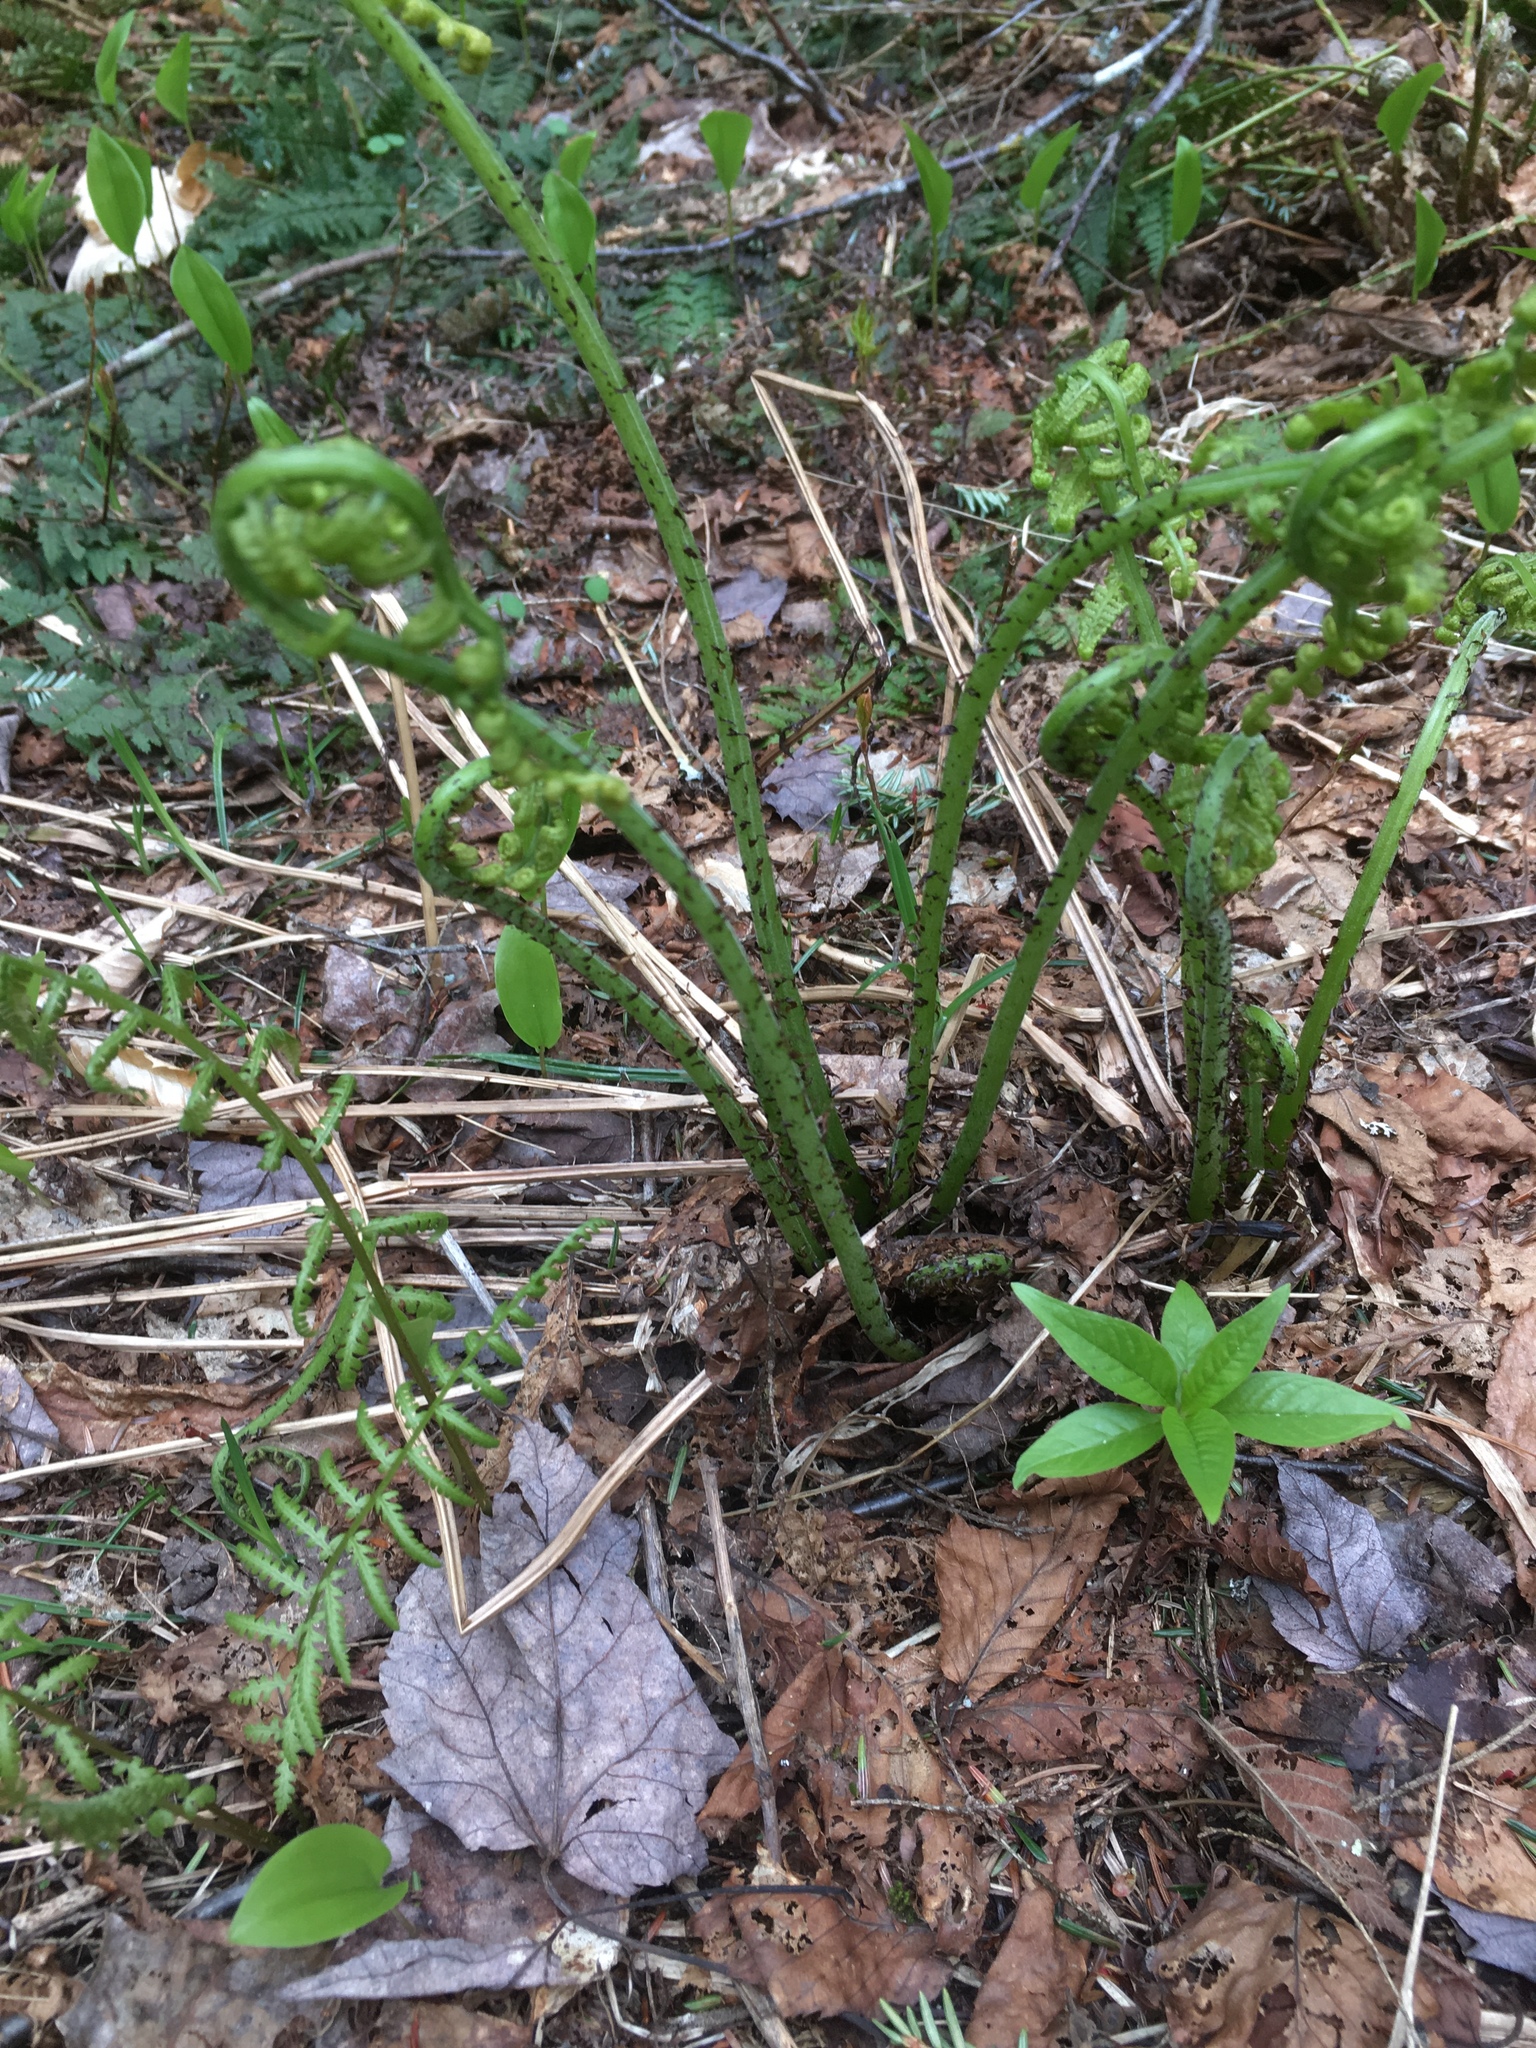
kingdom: Plantae
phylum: Tracheophyta
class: Polypodiopsida
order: Polypodiales
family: Athyriaceae
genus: Athyrium
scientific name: Athyrium angustum
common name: Northern lady fern
